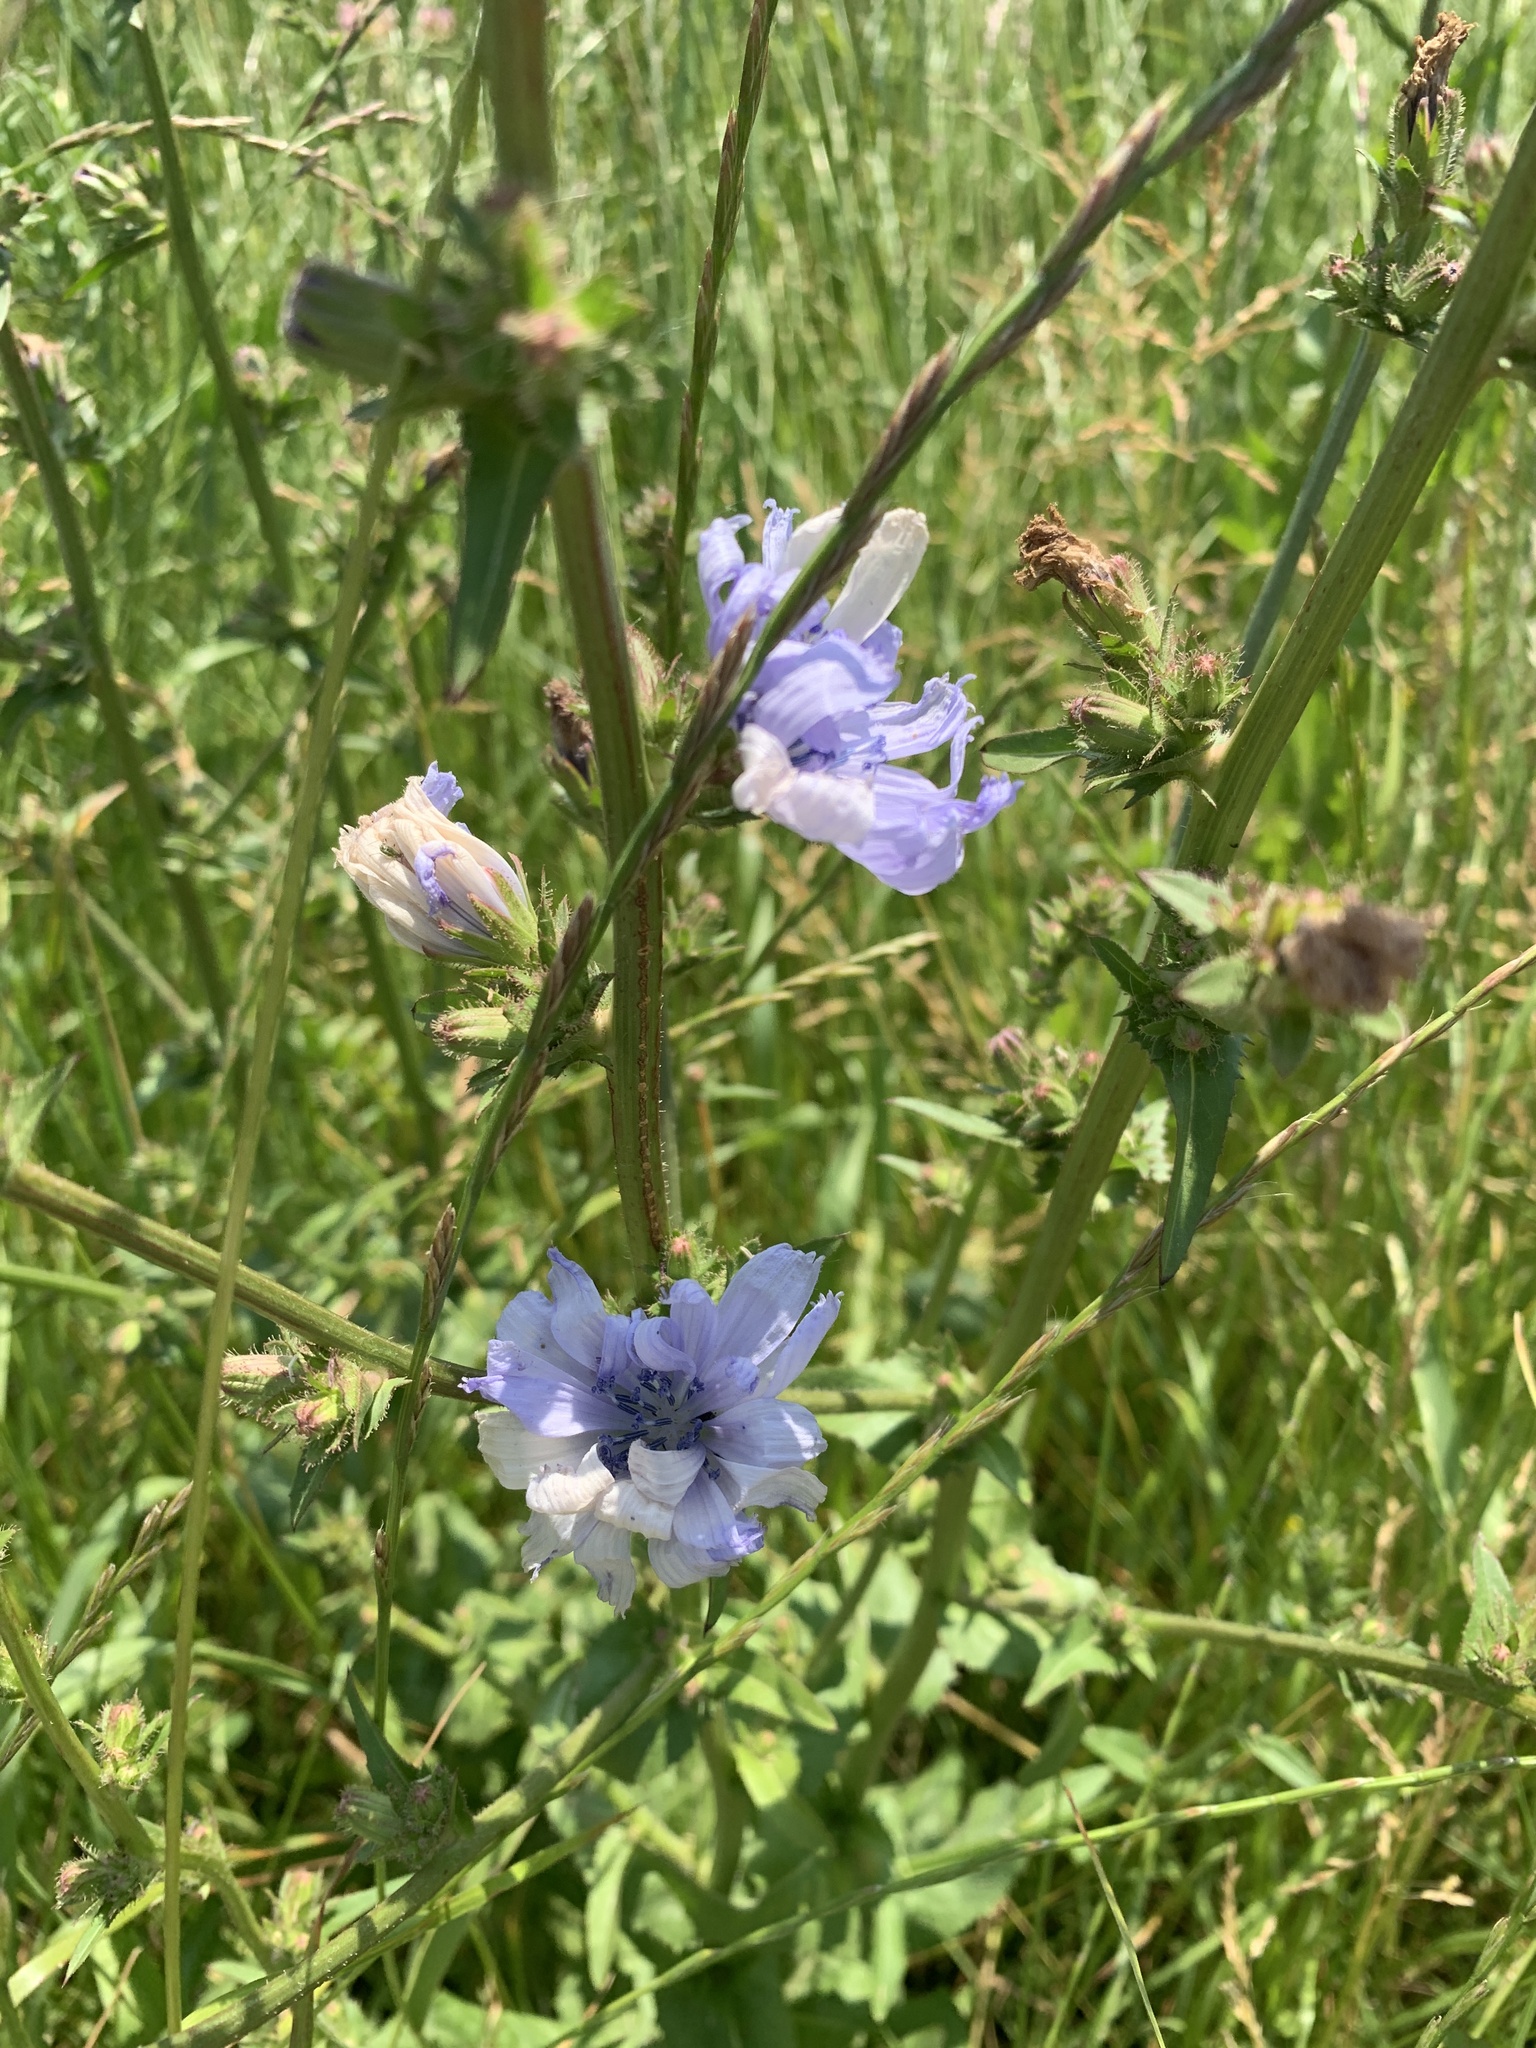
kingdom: Plantae
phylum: Tracheophyta
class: Magnoliopsida
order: Asterales
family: Asteraceae
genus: Cichorium
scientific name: Cichorium intybus
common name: Chicory
